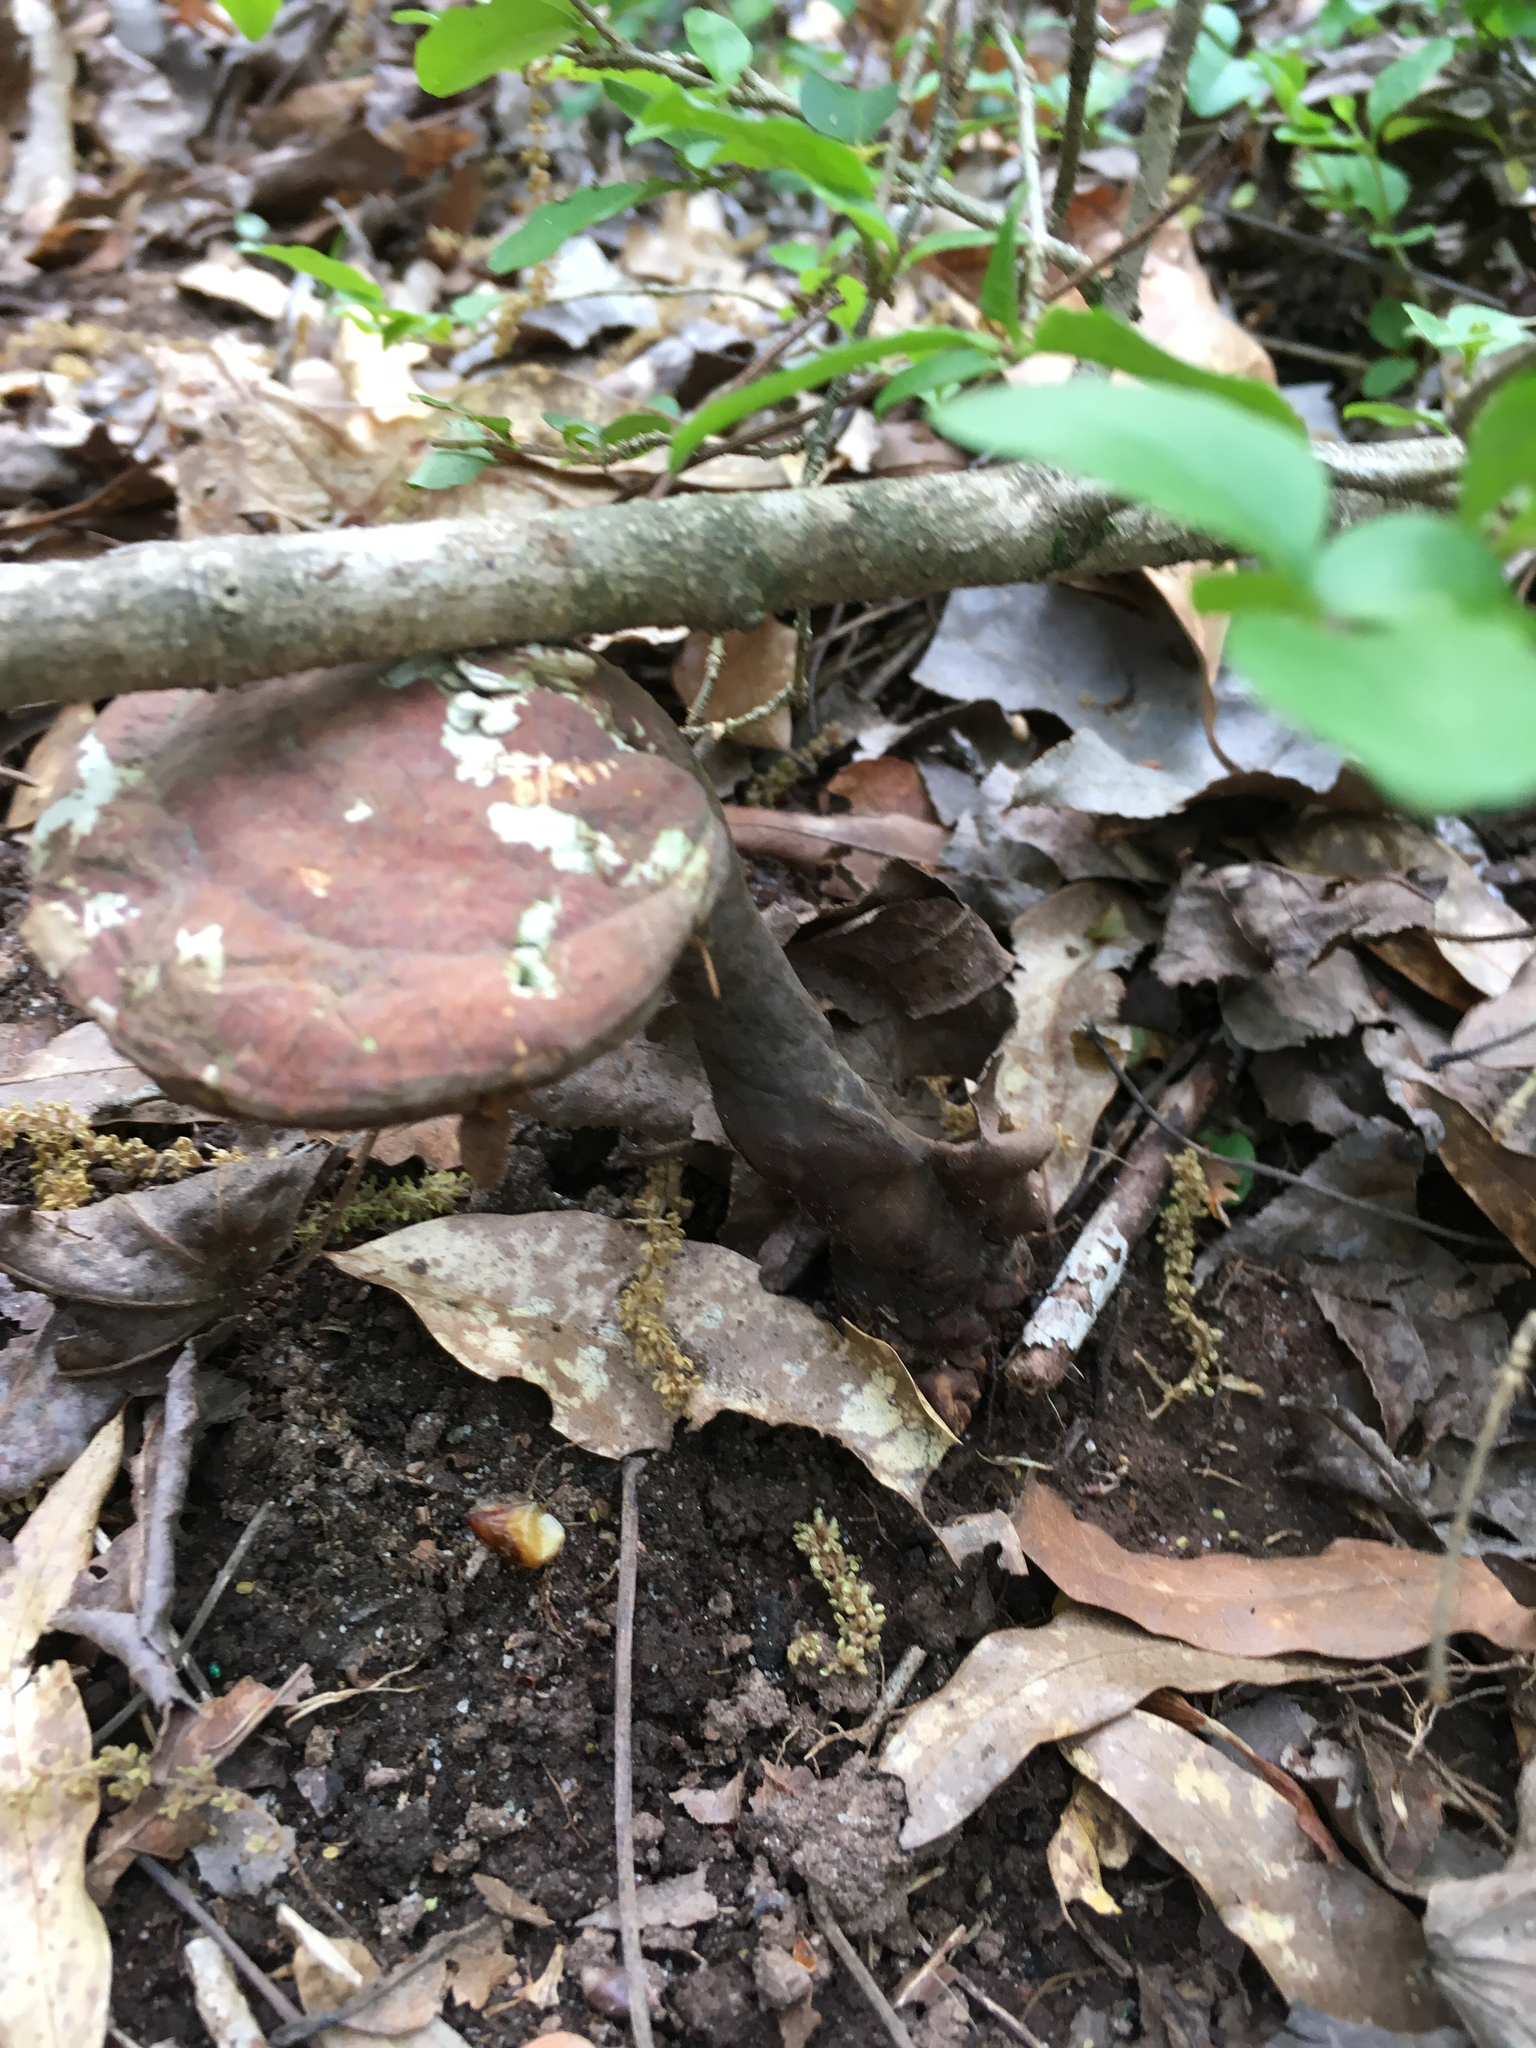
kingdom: Fungi
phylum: Basidiomycota
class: Agaricomycetes
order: Polyporales
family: Polyporaceae
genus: Ganoderma
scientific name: Ganoderma curtisii
